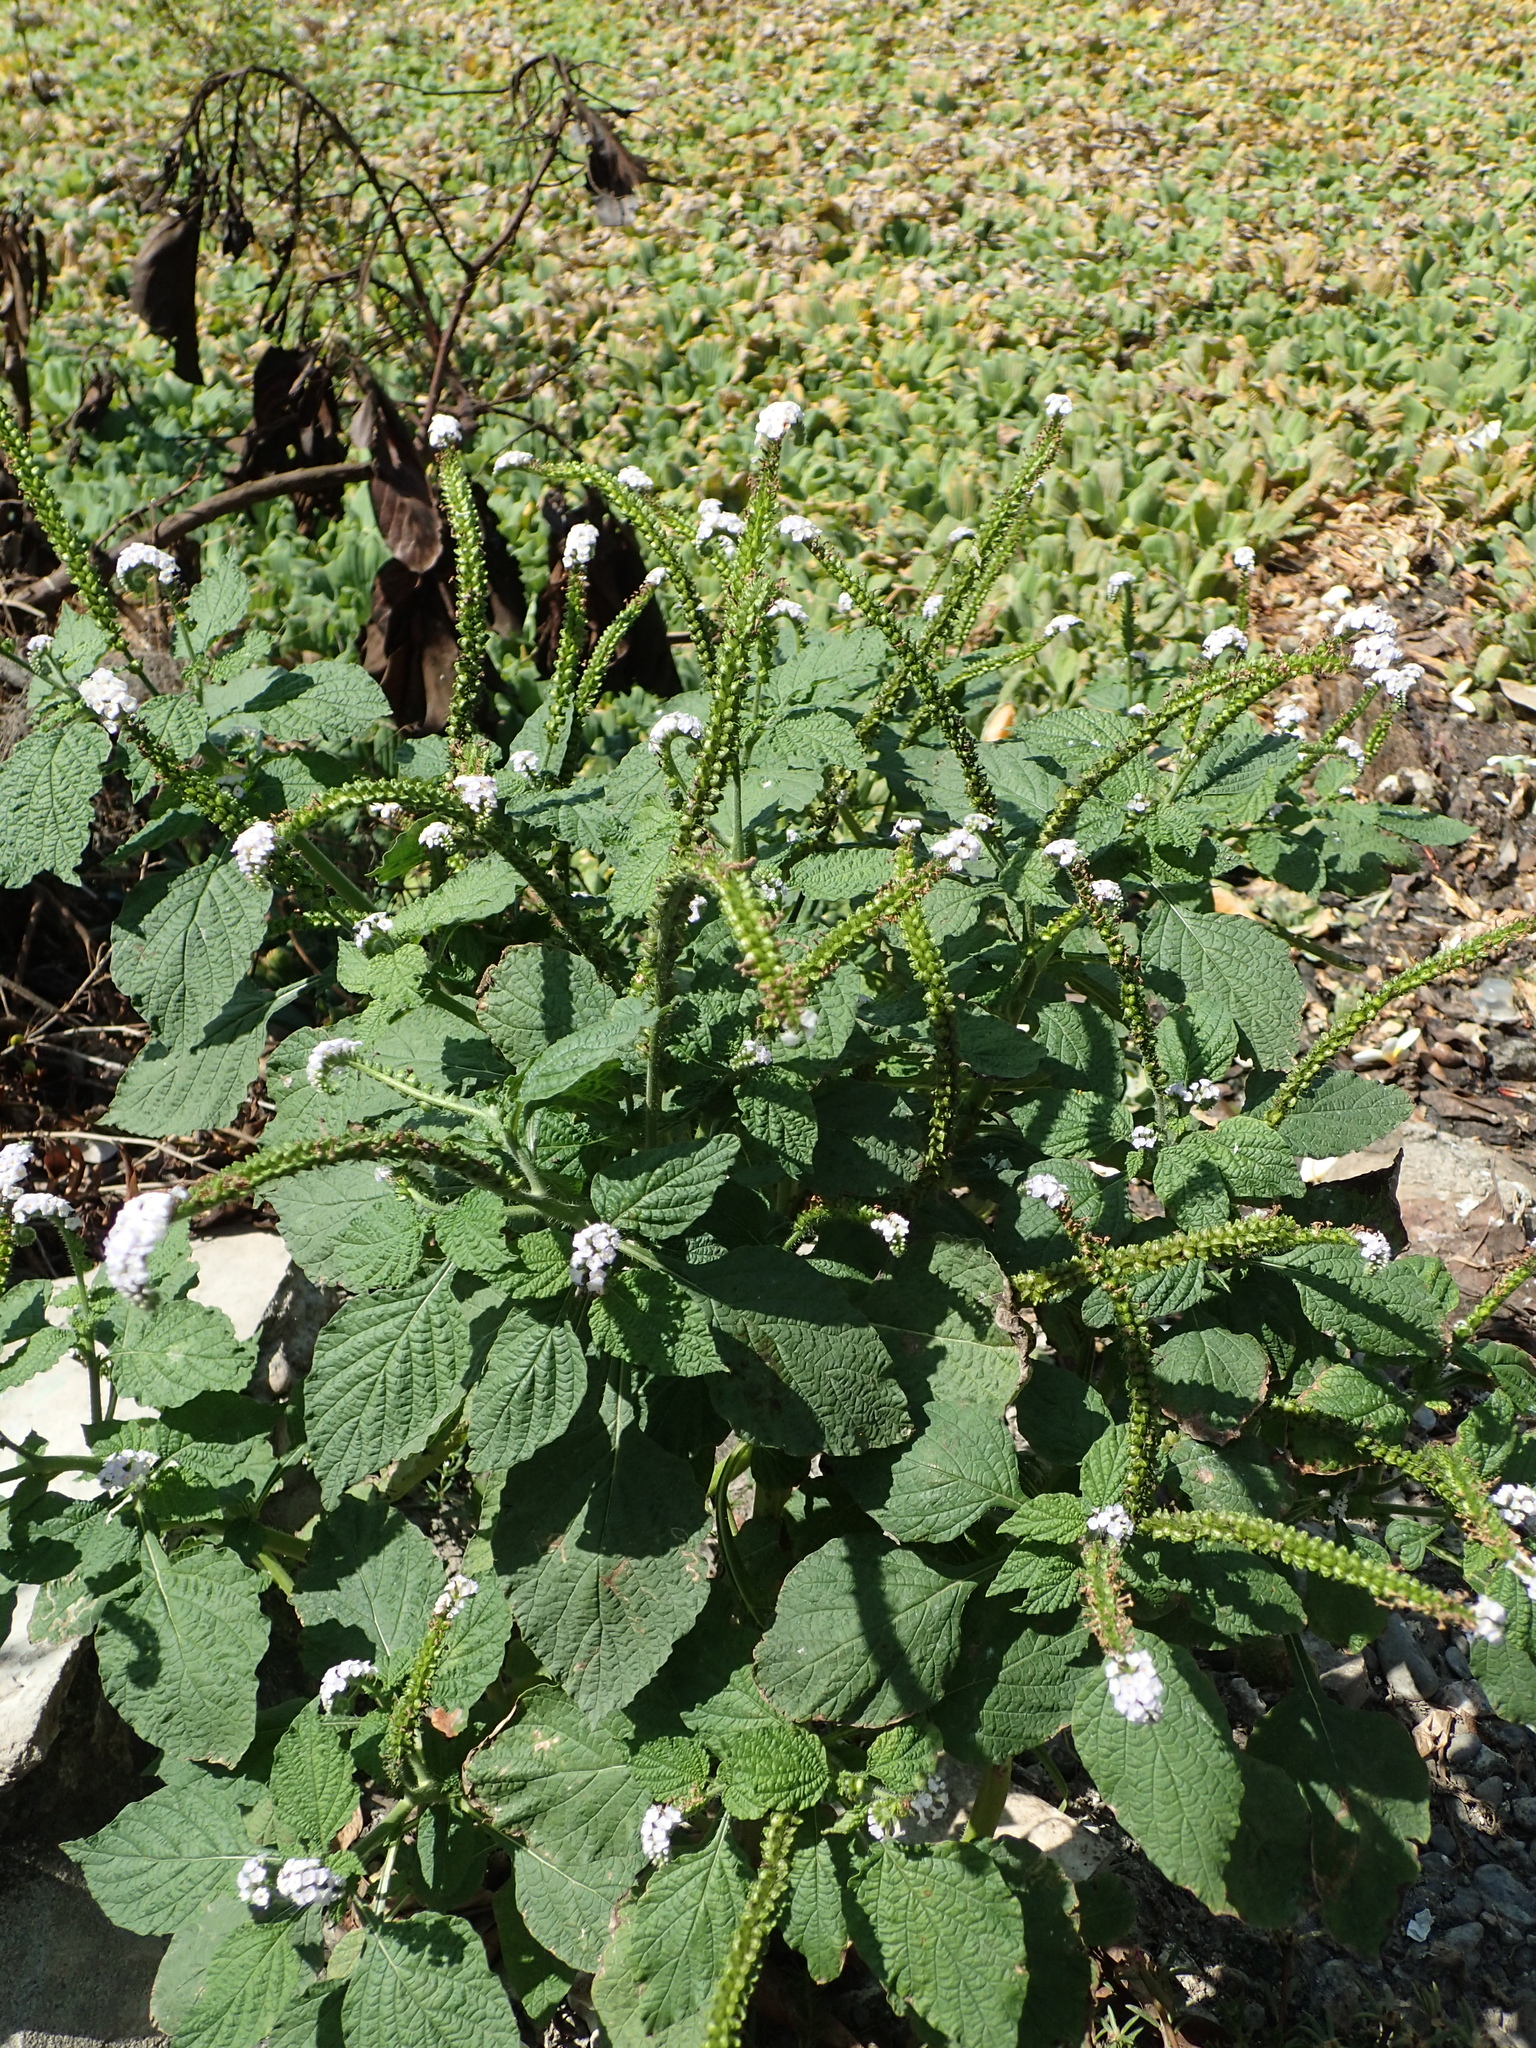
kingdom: Plantae
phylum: Tracheophyta
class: Magnoliopsida
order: Boraginales
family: Heliotropiaceae
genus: Heliotropium
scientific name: Heliotropium indicum
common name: Indian heliotrope
